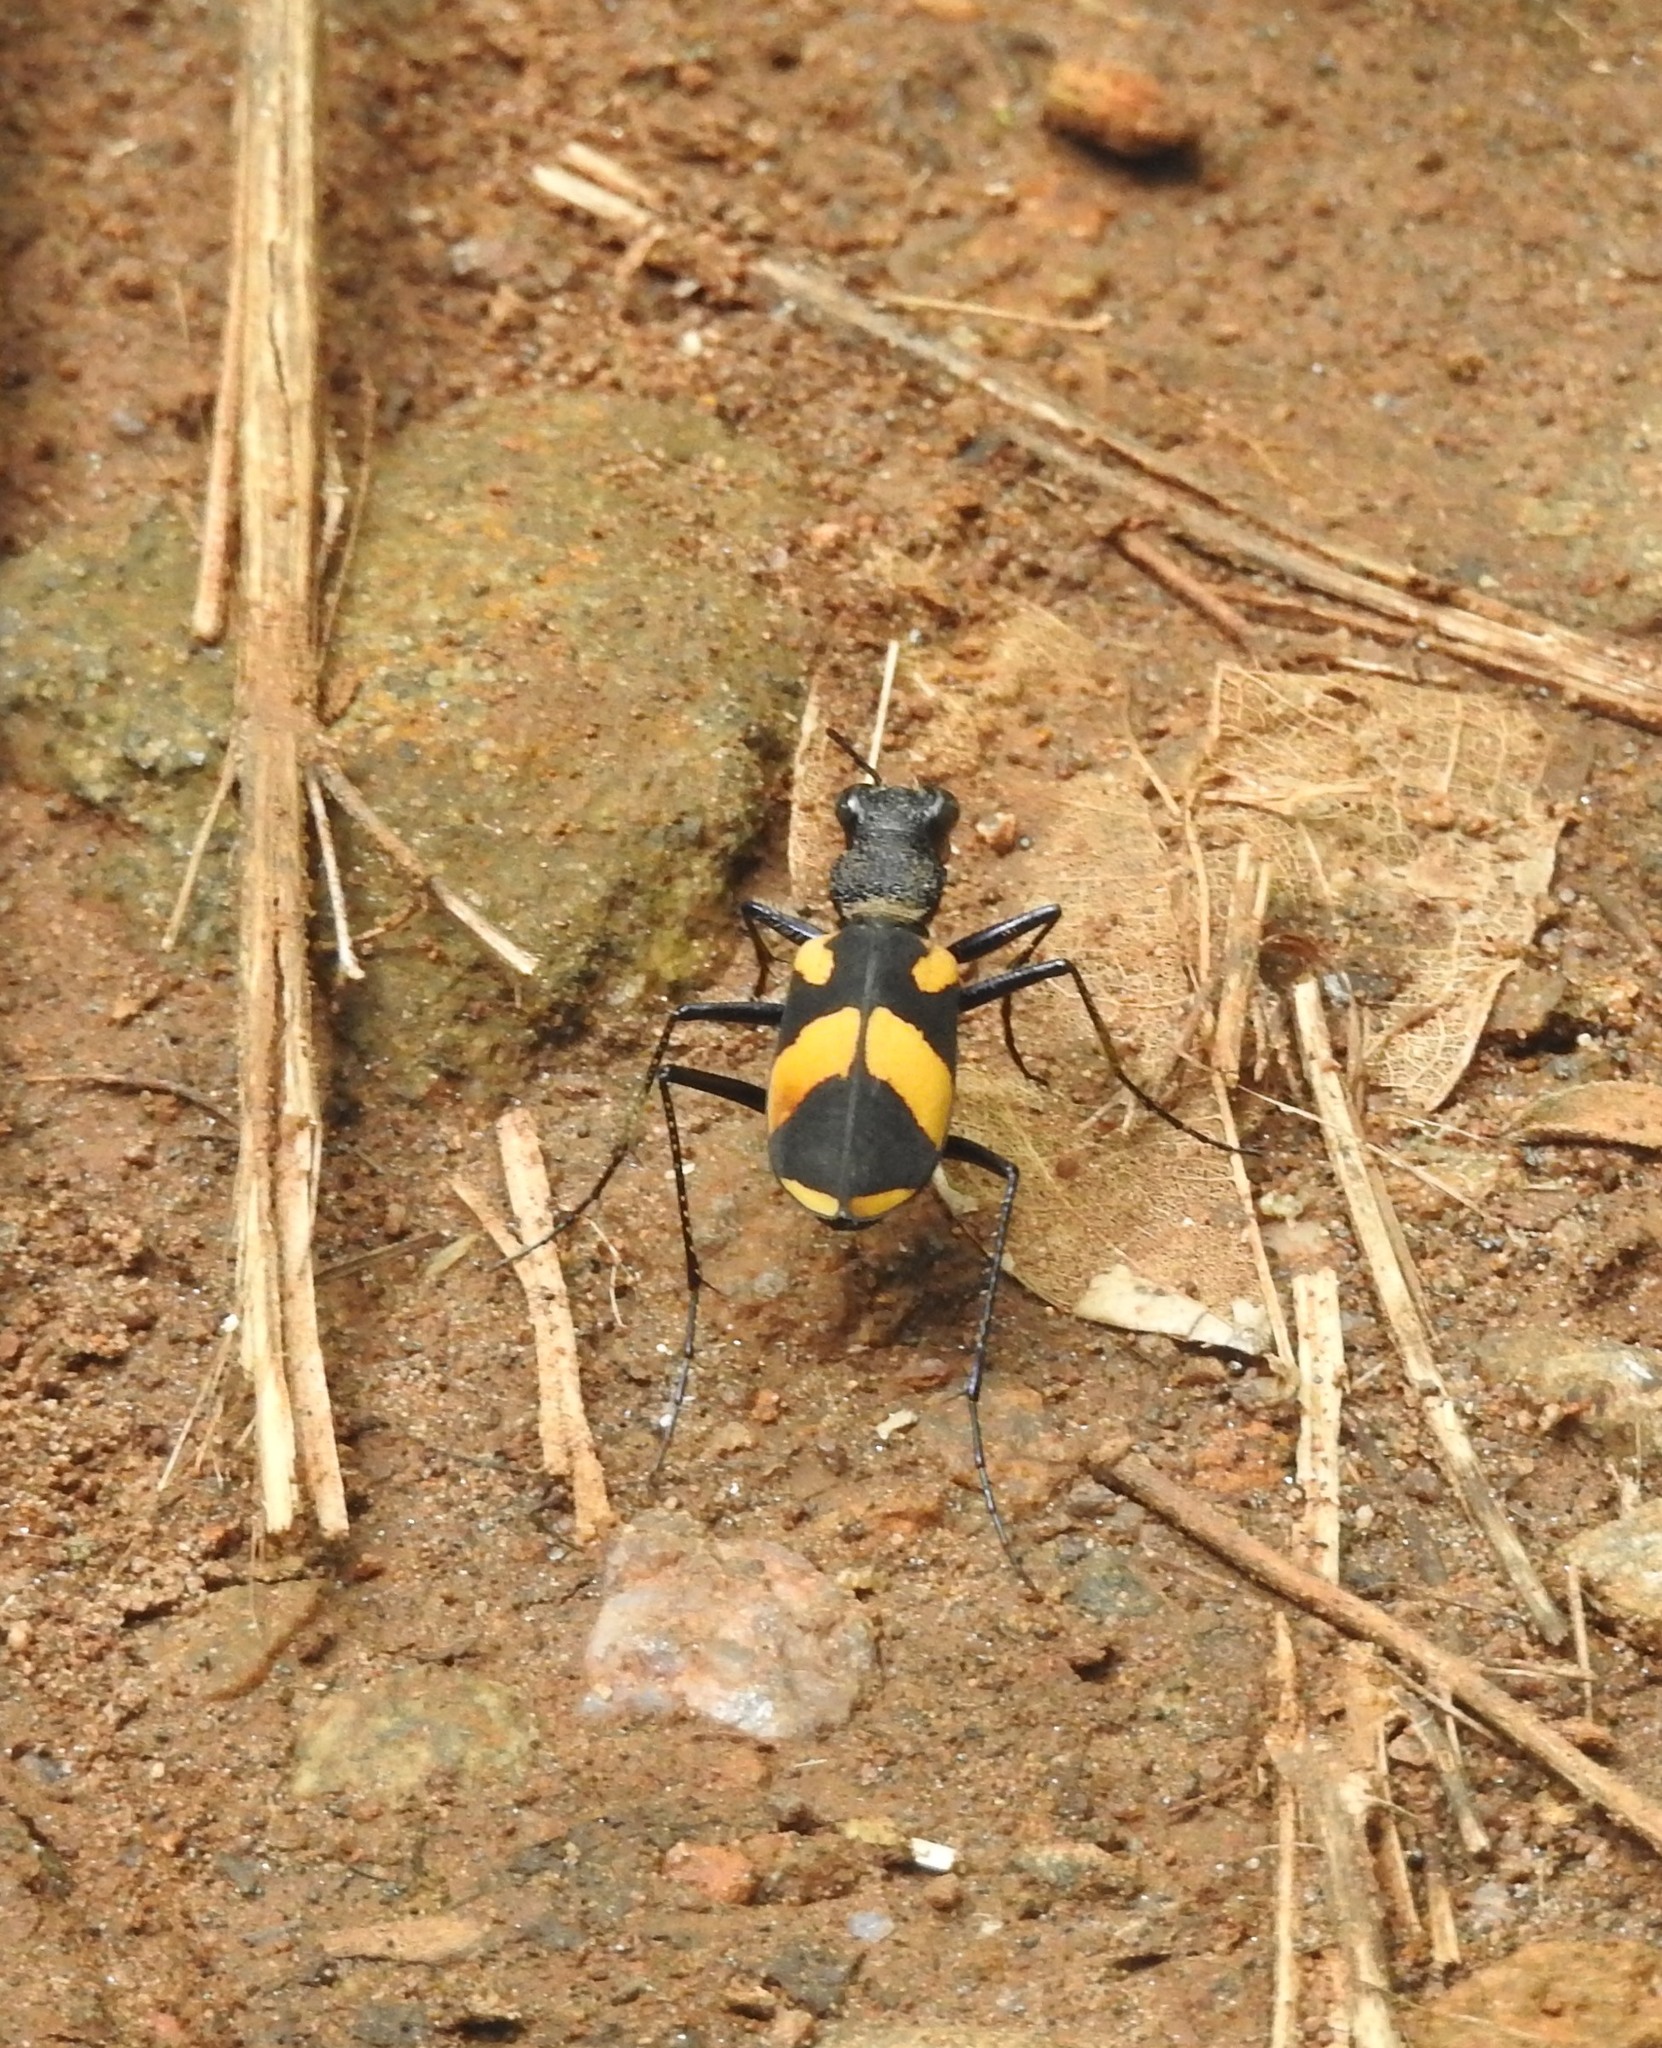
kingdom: Animalia
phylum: Arthropoda
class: Insecta
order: Coleoptera
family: Carabidae
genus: Cicindela
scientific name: Cicindela princeps
